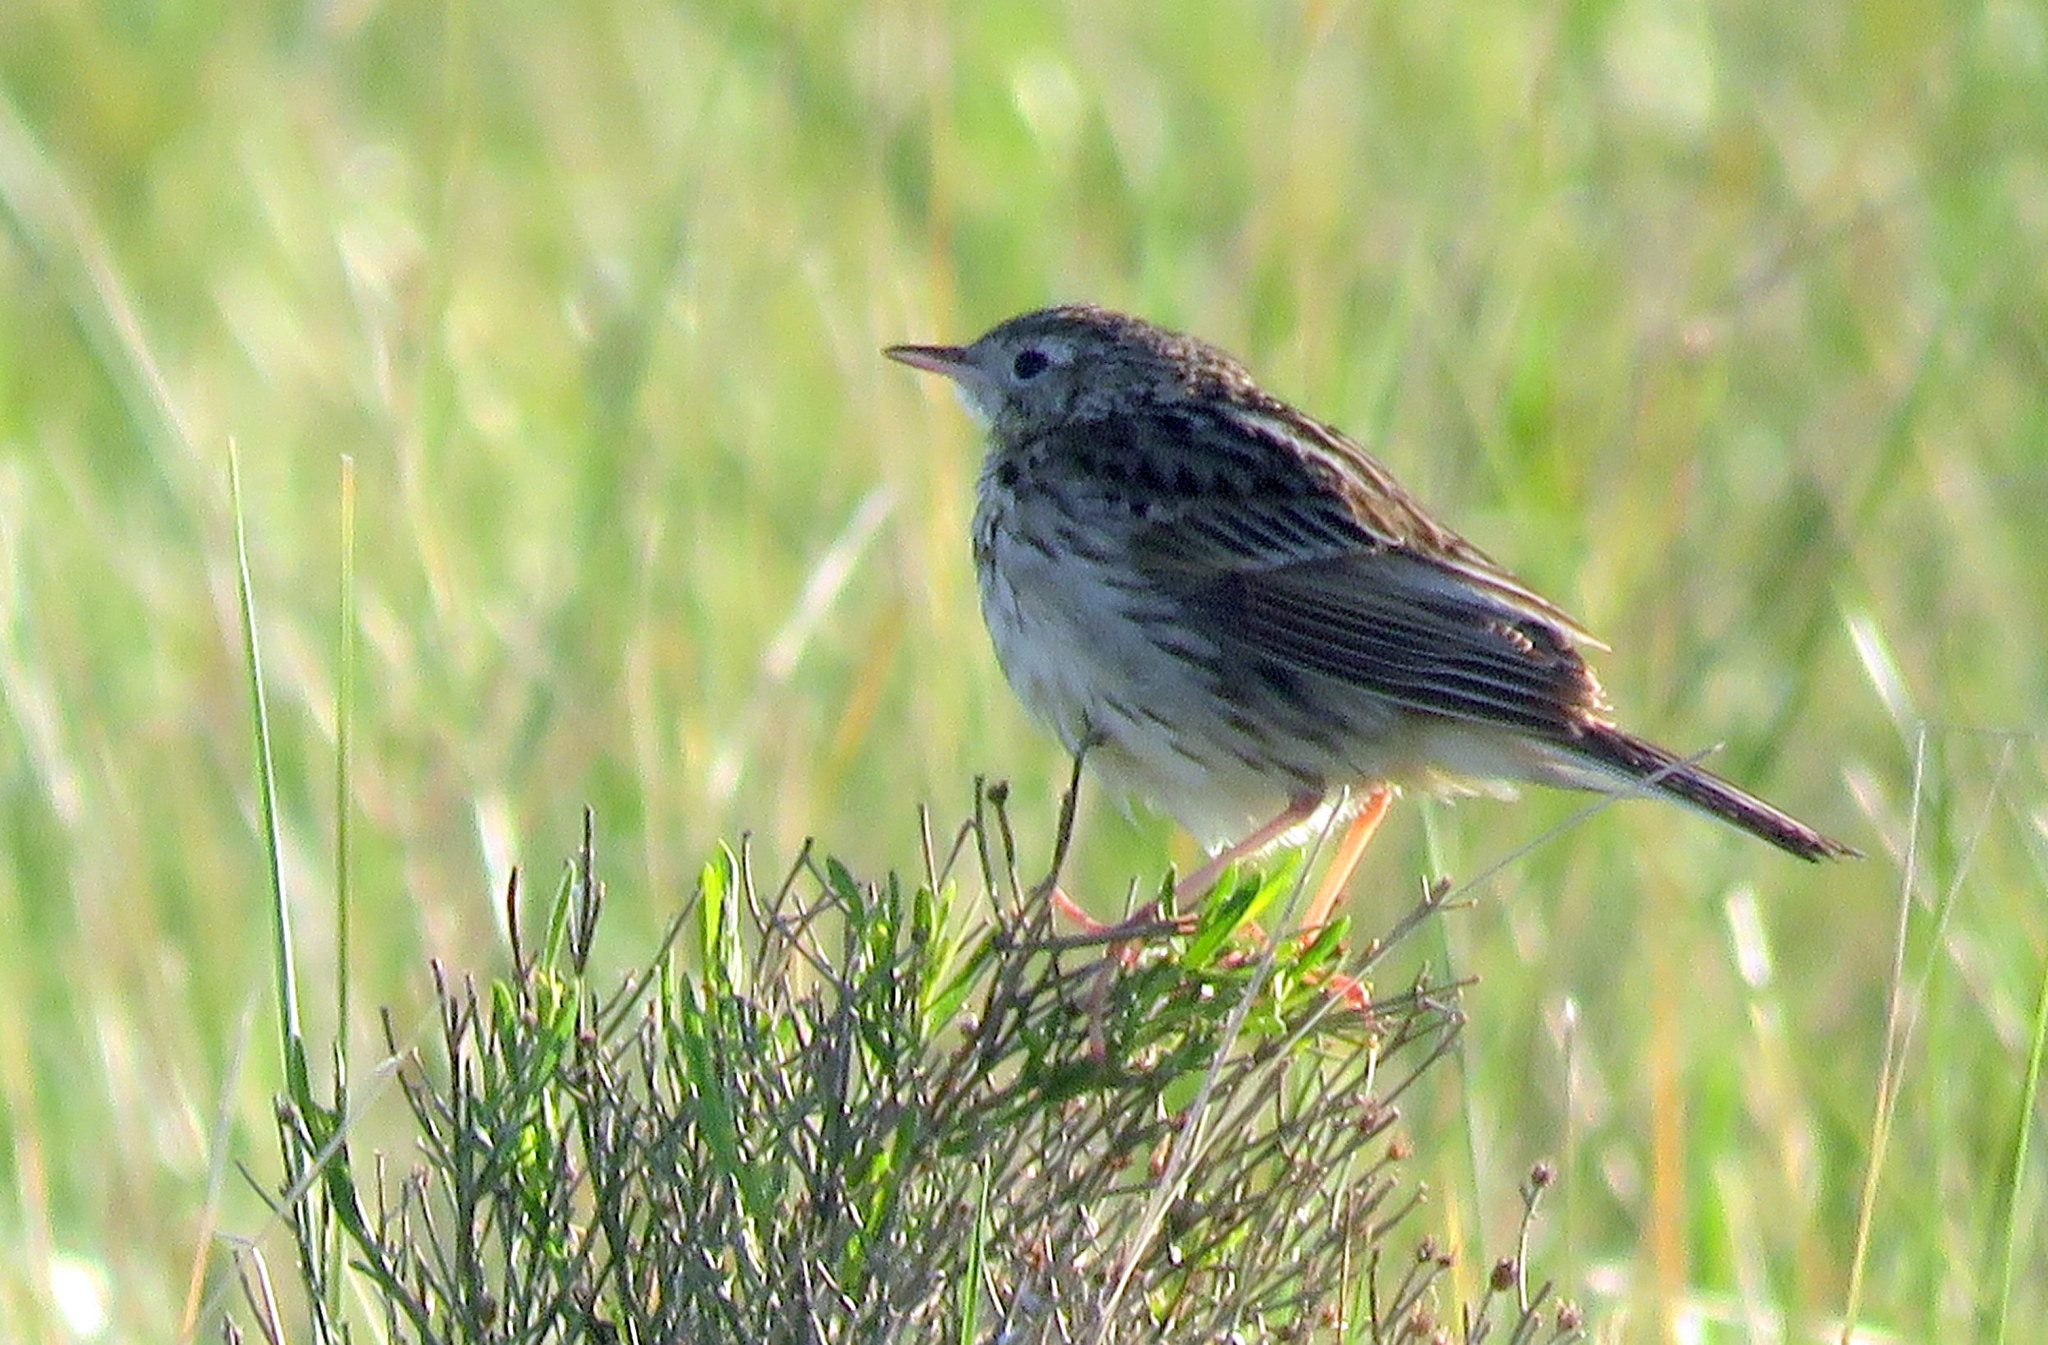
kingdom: Animalia
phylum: Chordata
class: Aves
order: Passeriformes
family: Motacillidae
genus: Anthus
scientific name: Anthus hellmayri
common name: Hellmayr's pipit
